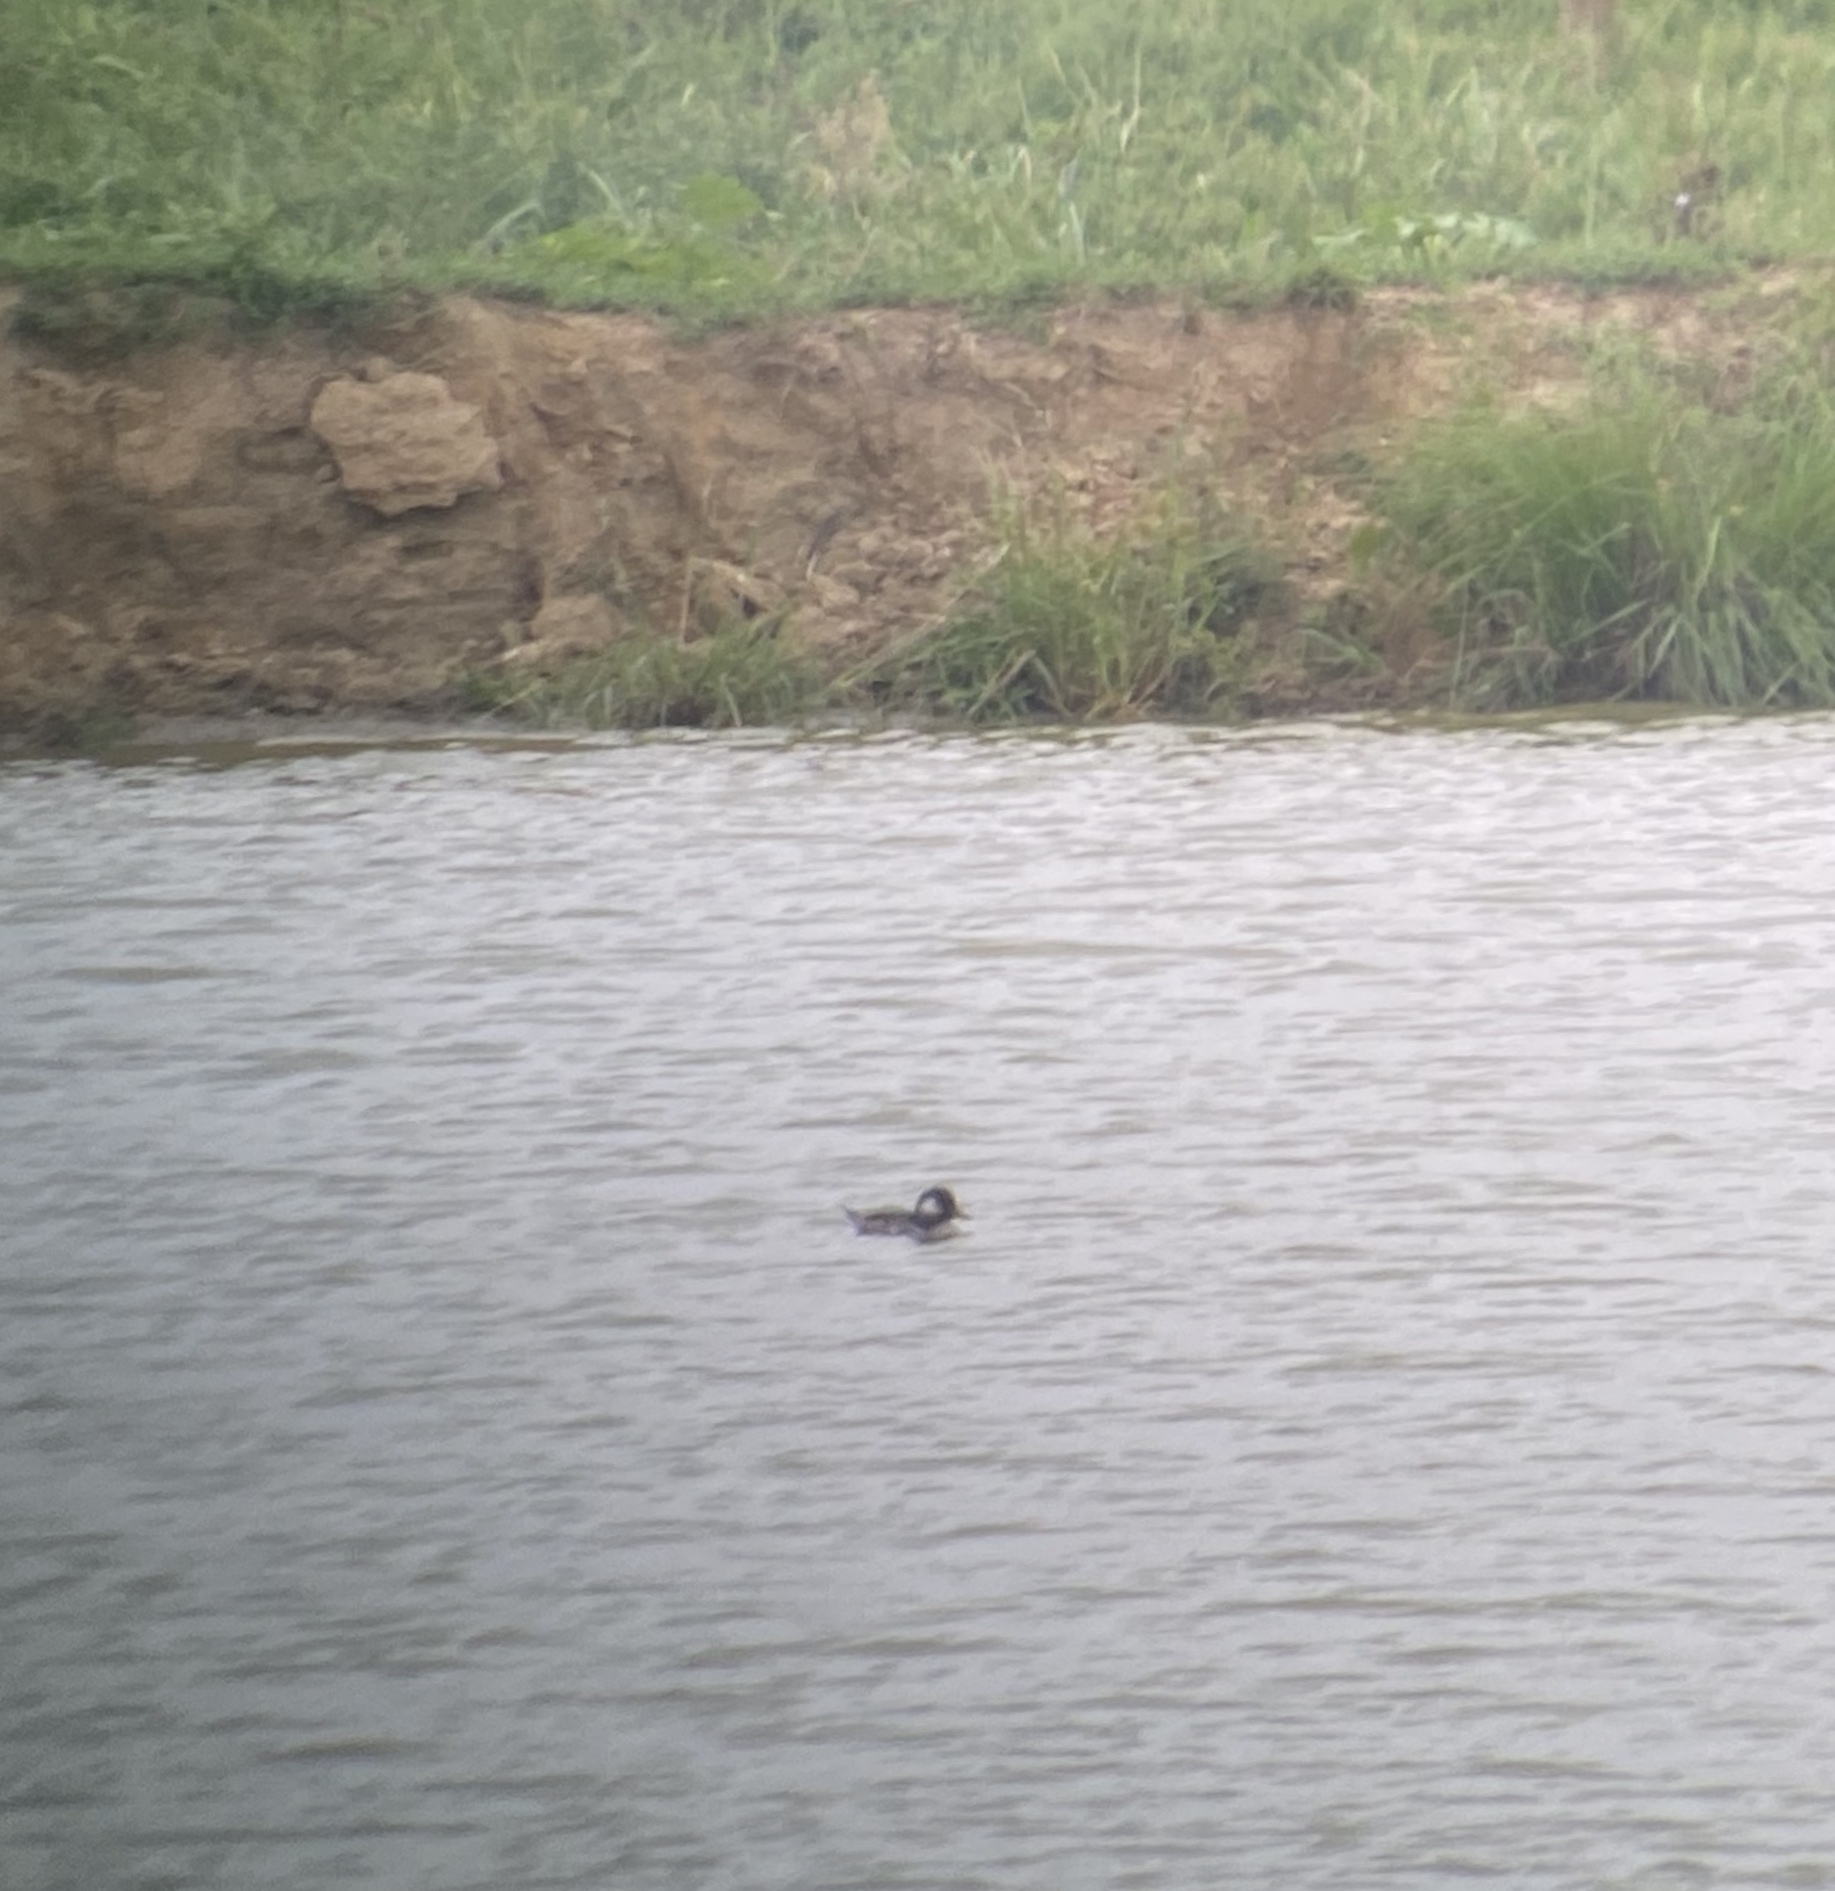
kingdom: Animalia
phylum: Chordata
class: Aves
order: Anseriformes
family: Anatidae
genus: Bucephala
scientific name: Bucephala albeola
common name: Bufflehead
